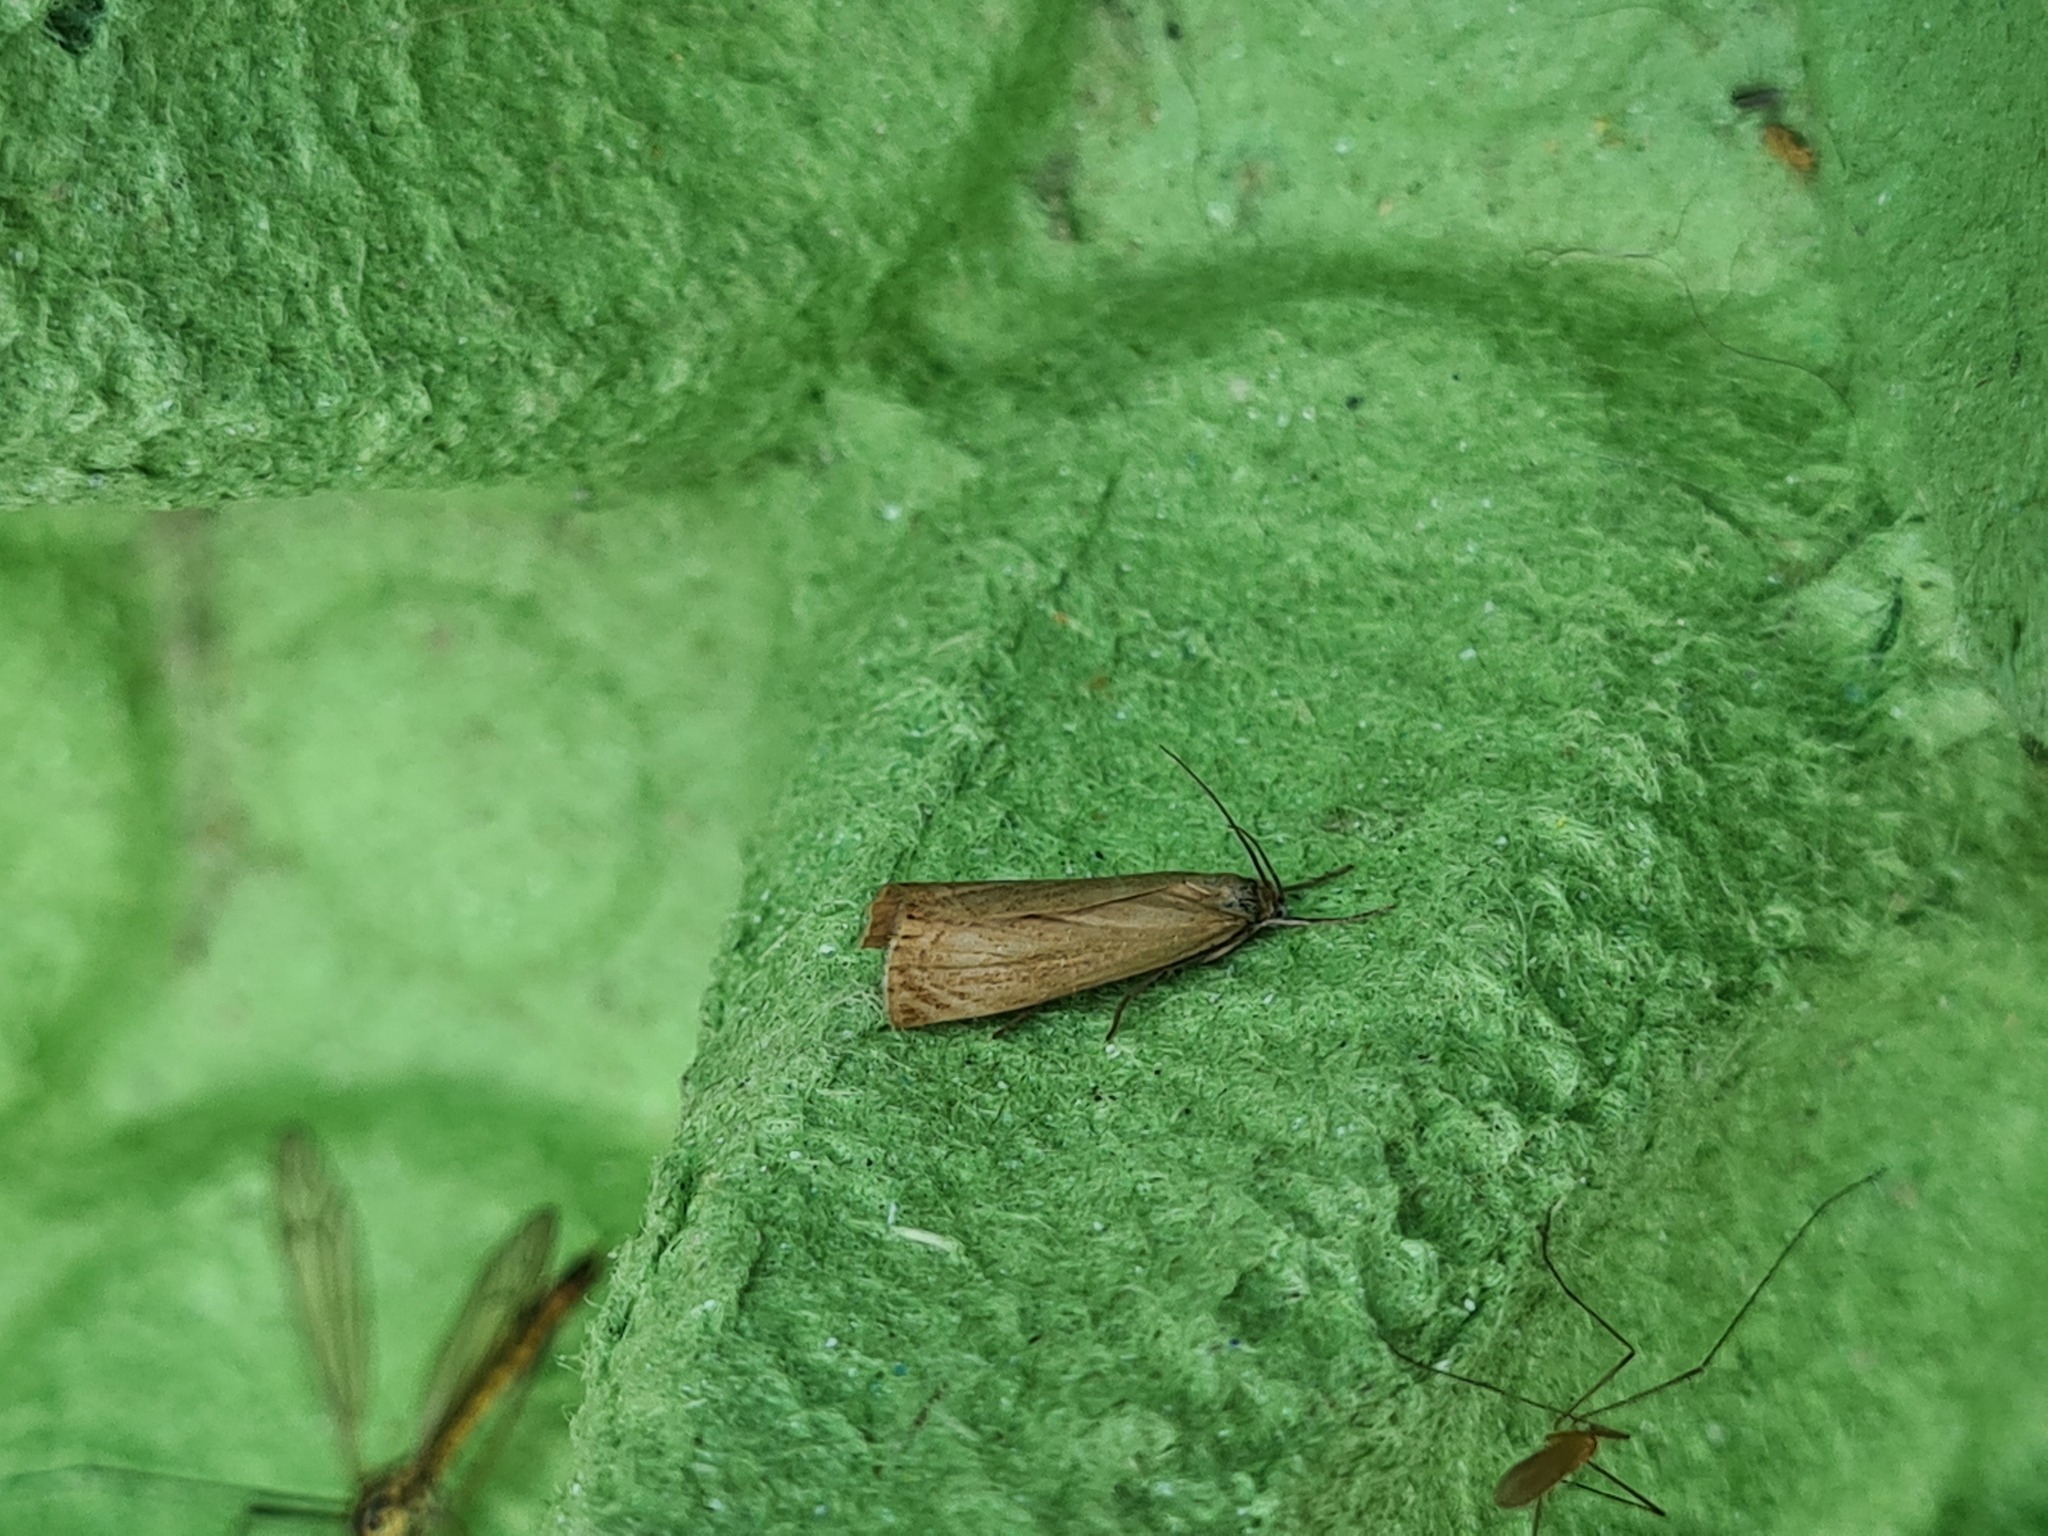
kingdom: Animalia
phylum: Arthropoda
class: Insecta
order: Lepidoptera
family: Crambidae
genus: Chrysoteuchia
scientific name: Chrysoteuchia culmella
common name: Garden grass-veneer
